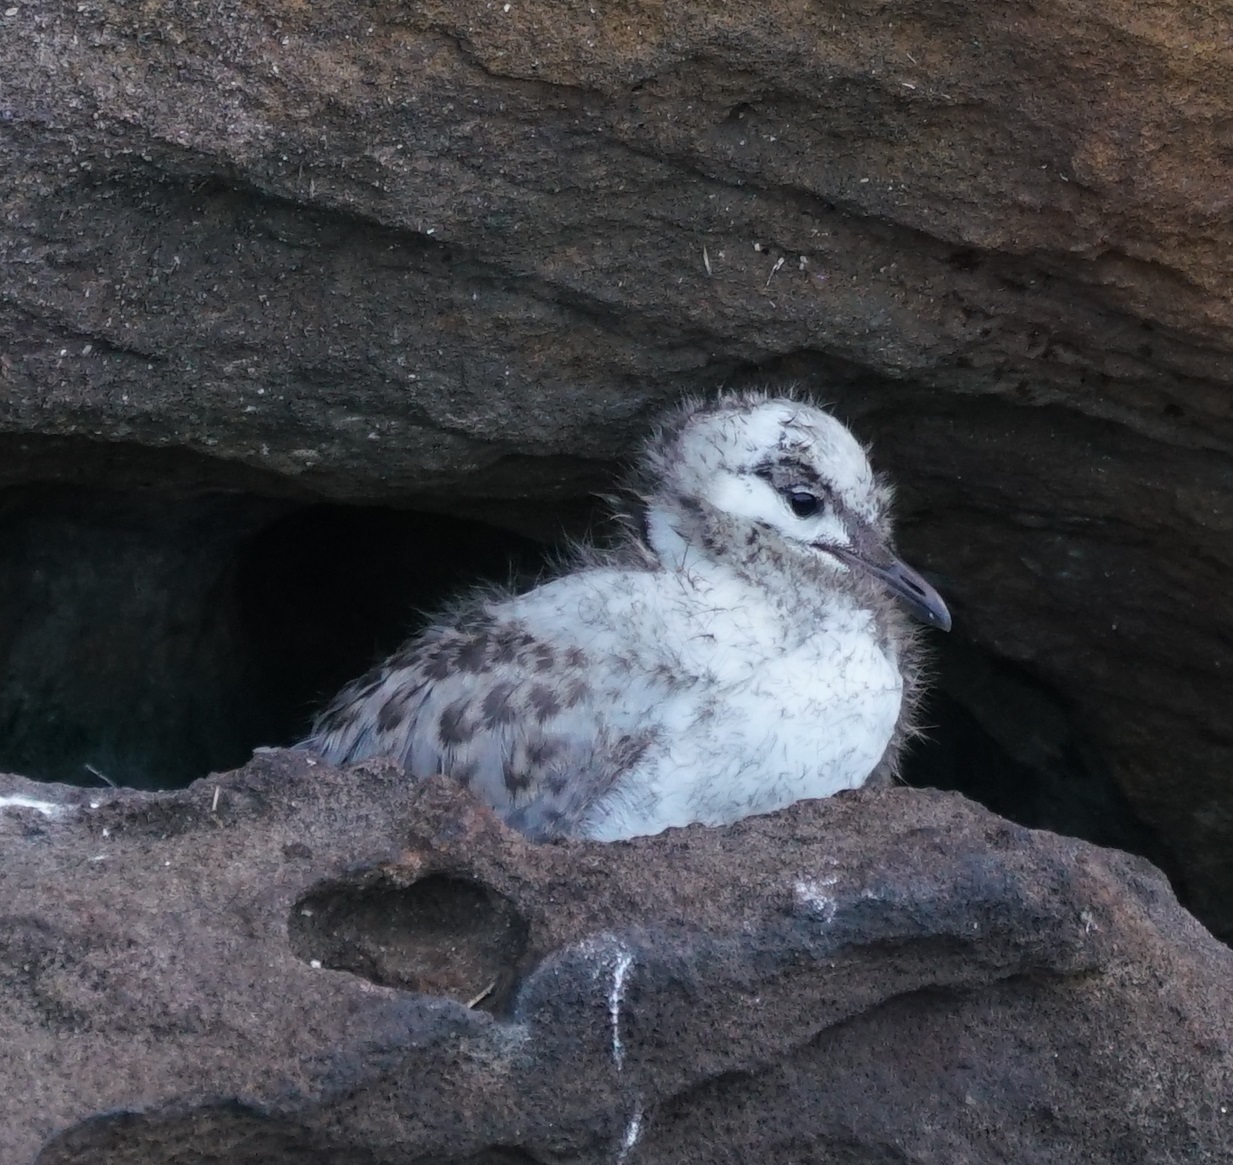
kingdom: Animalia
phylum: Chordata
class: Aves
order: Charadriiformes
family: Laridae
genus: Chroicocephalus
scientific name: Chroicocephalus novaehollandiae
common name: Silver gull
